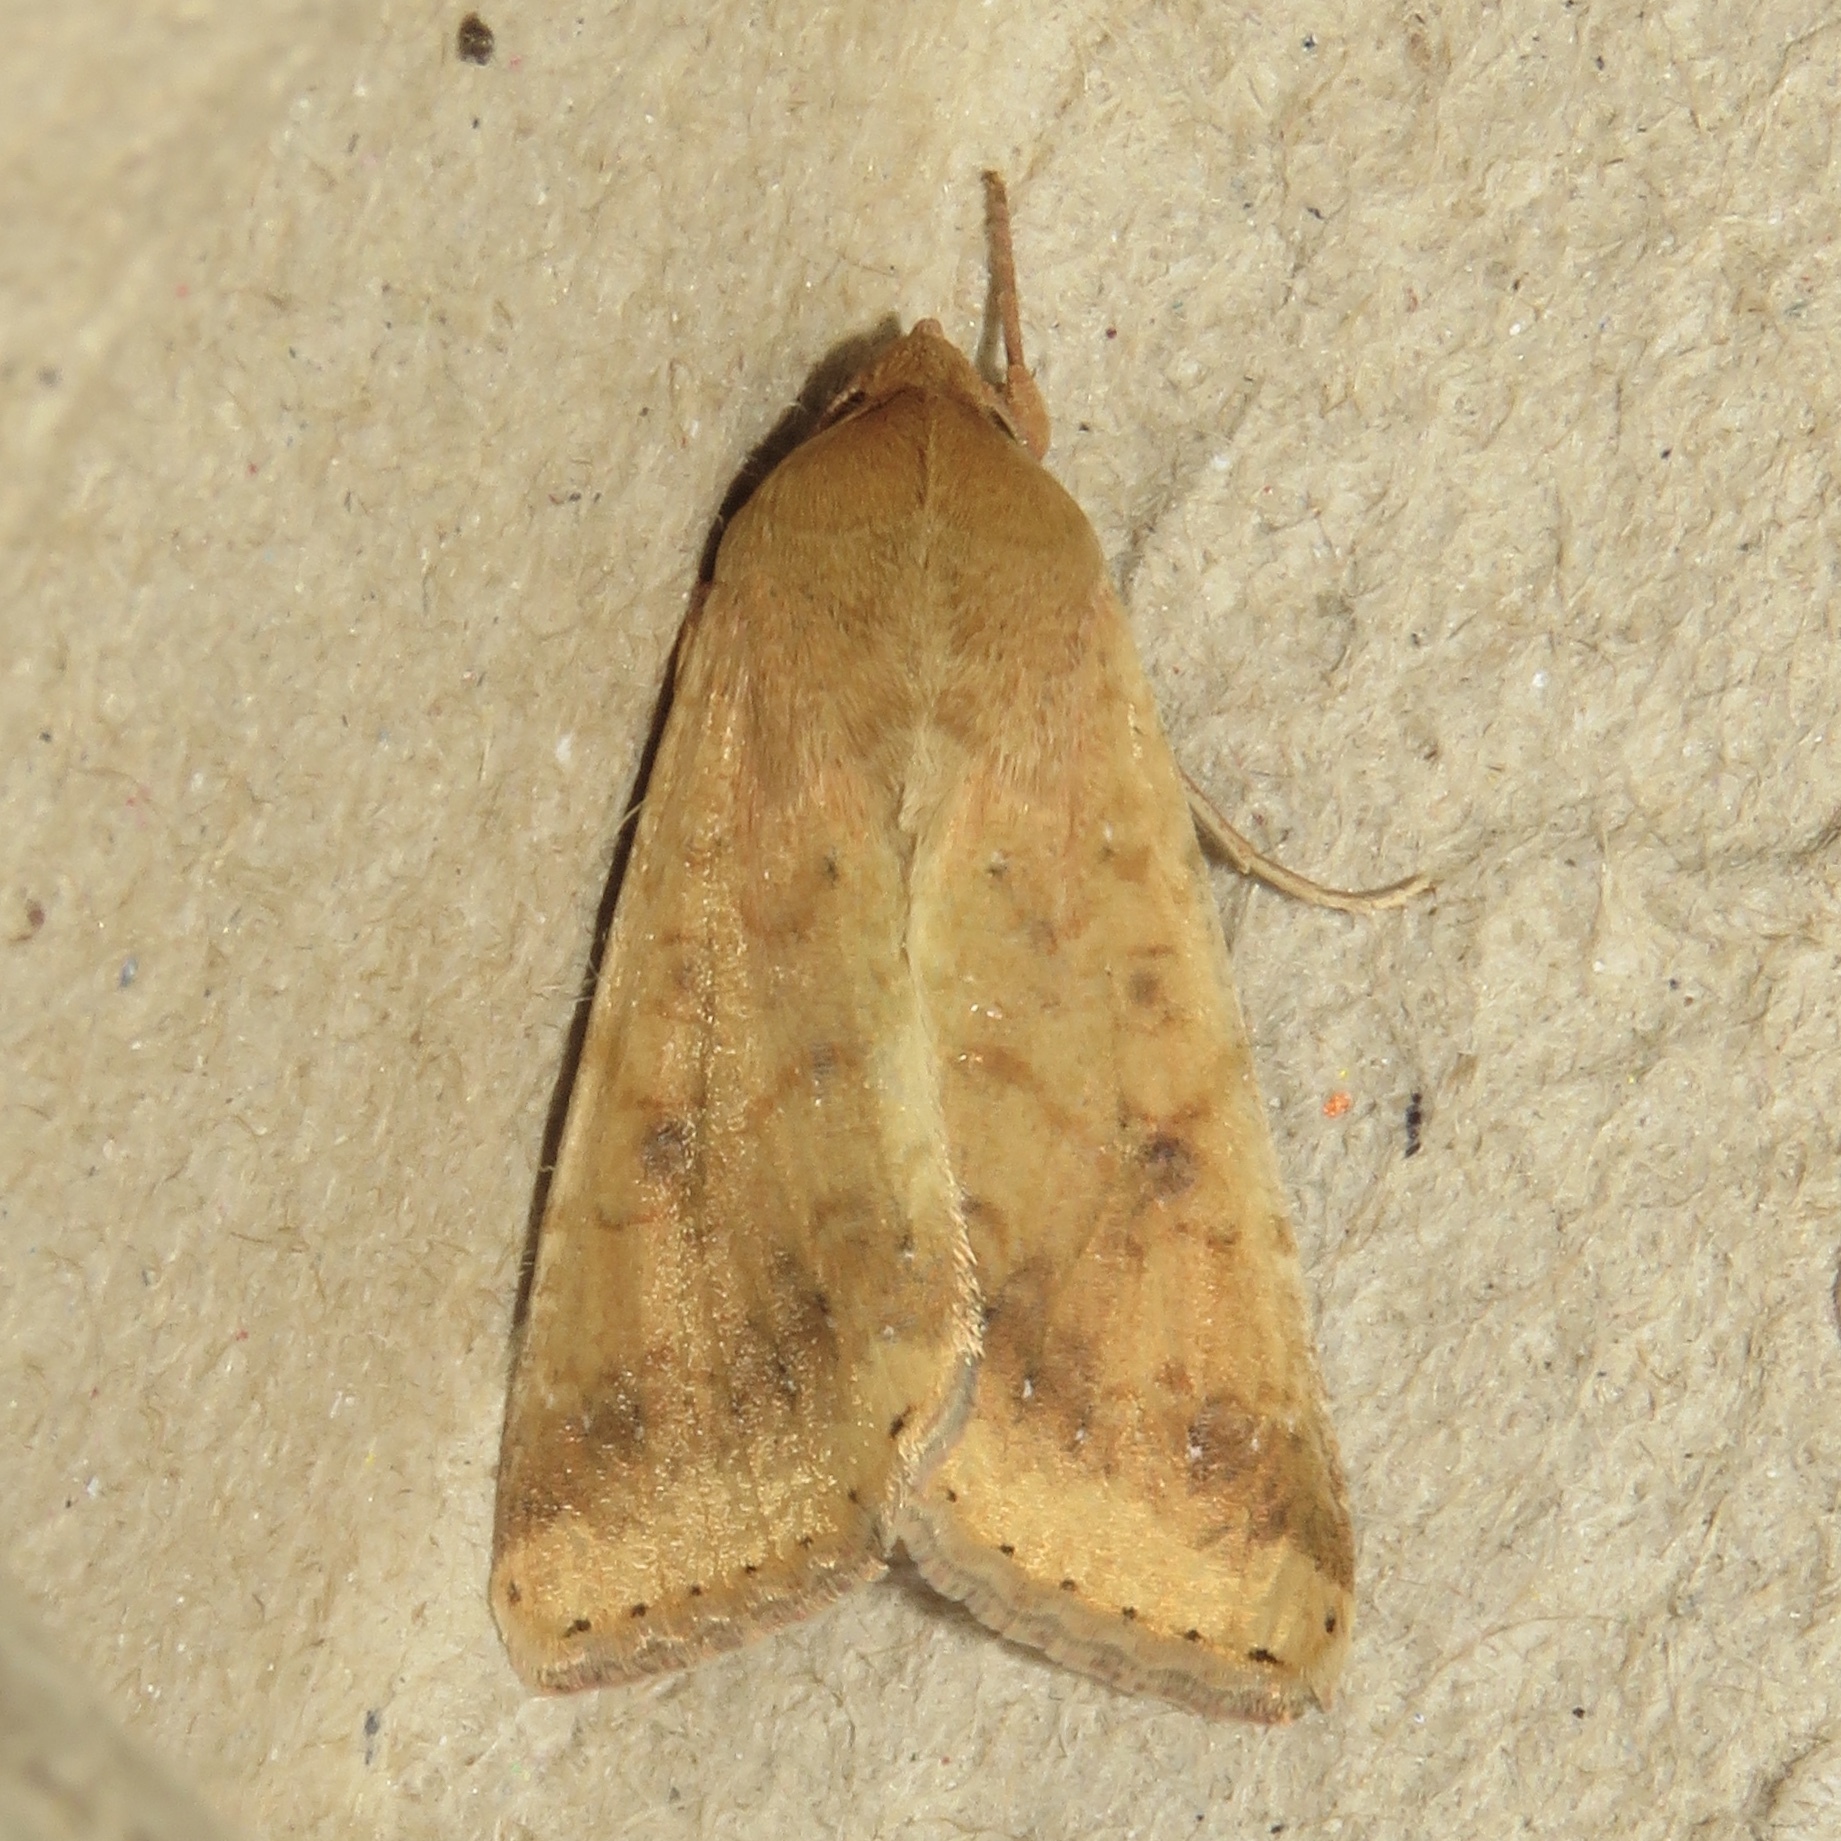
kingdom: Animalia
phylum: Arthropoda
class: Insecta
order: Lepidoptera
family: Noctuidae
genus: Helicoverpa
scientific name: Helicoverpa zea
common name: Bollworm
